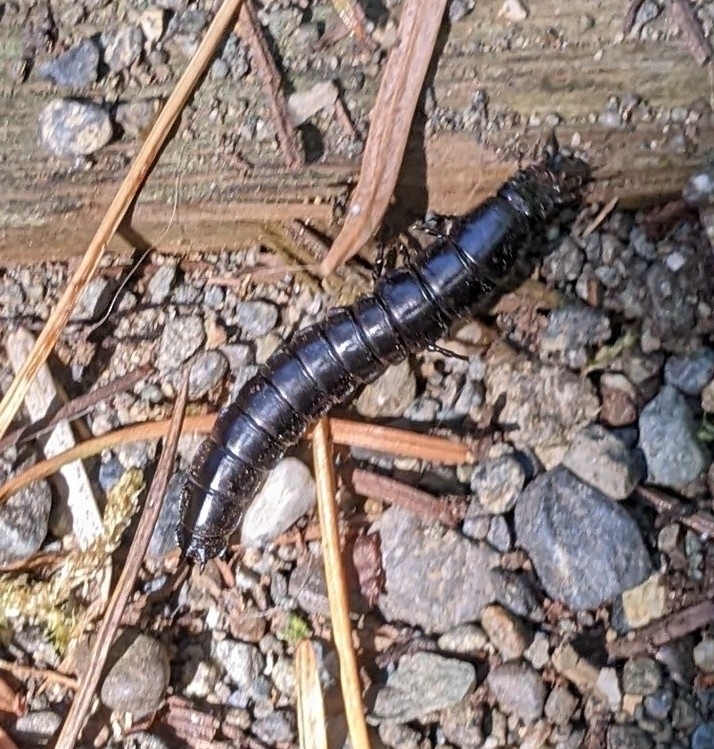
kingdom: Animalia
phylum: Arthropoda
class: Insecta
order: Coleoptera
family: Carabidae
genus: Carabus
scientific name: Carabus
